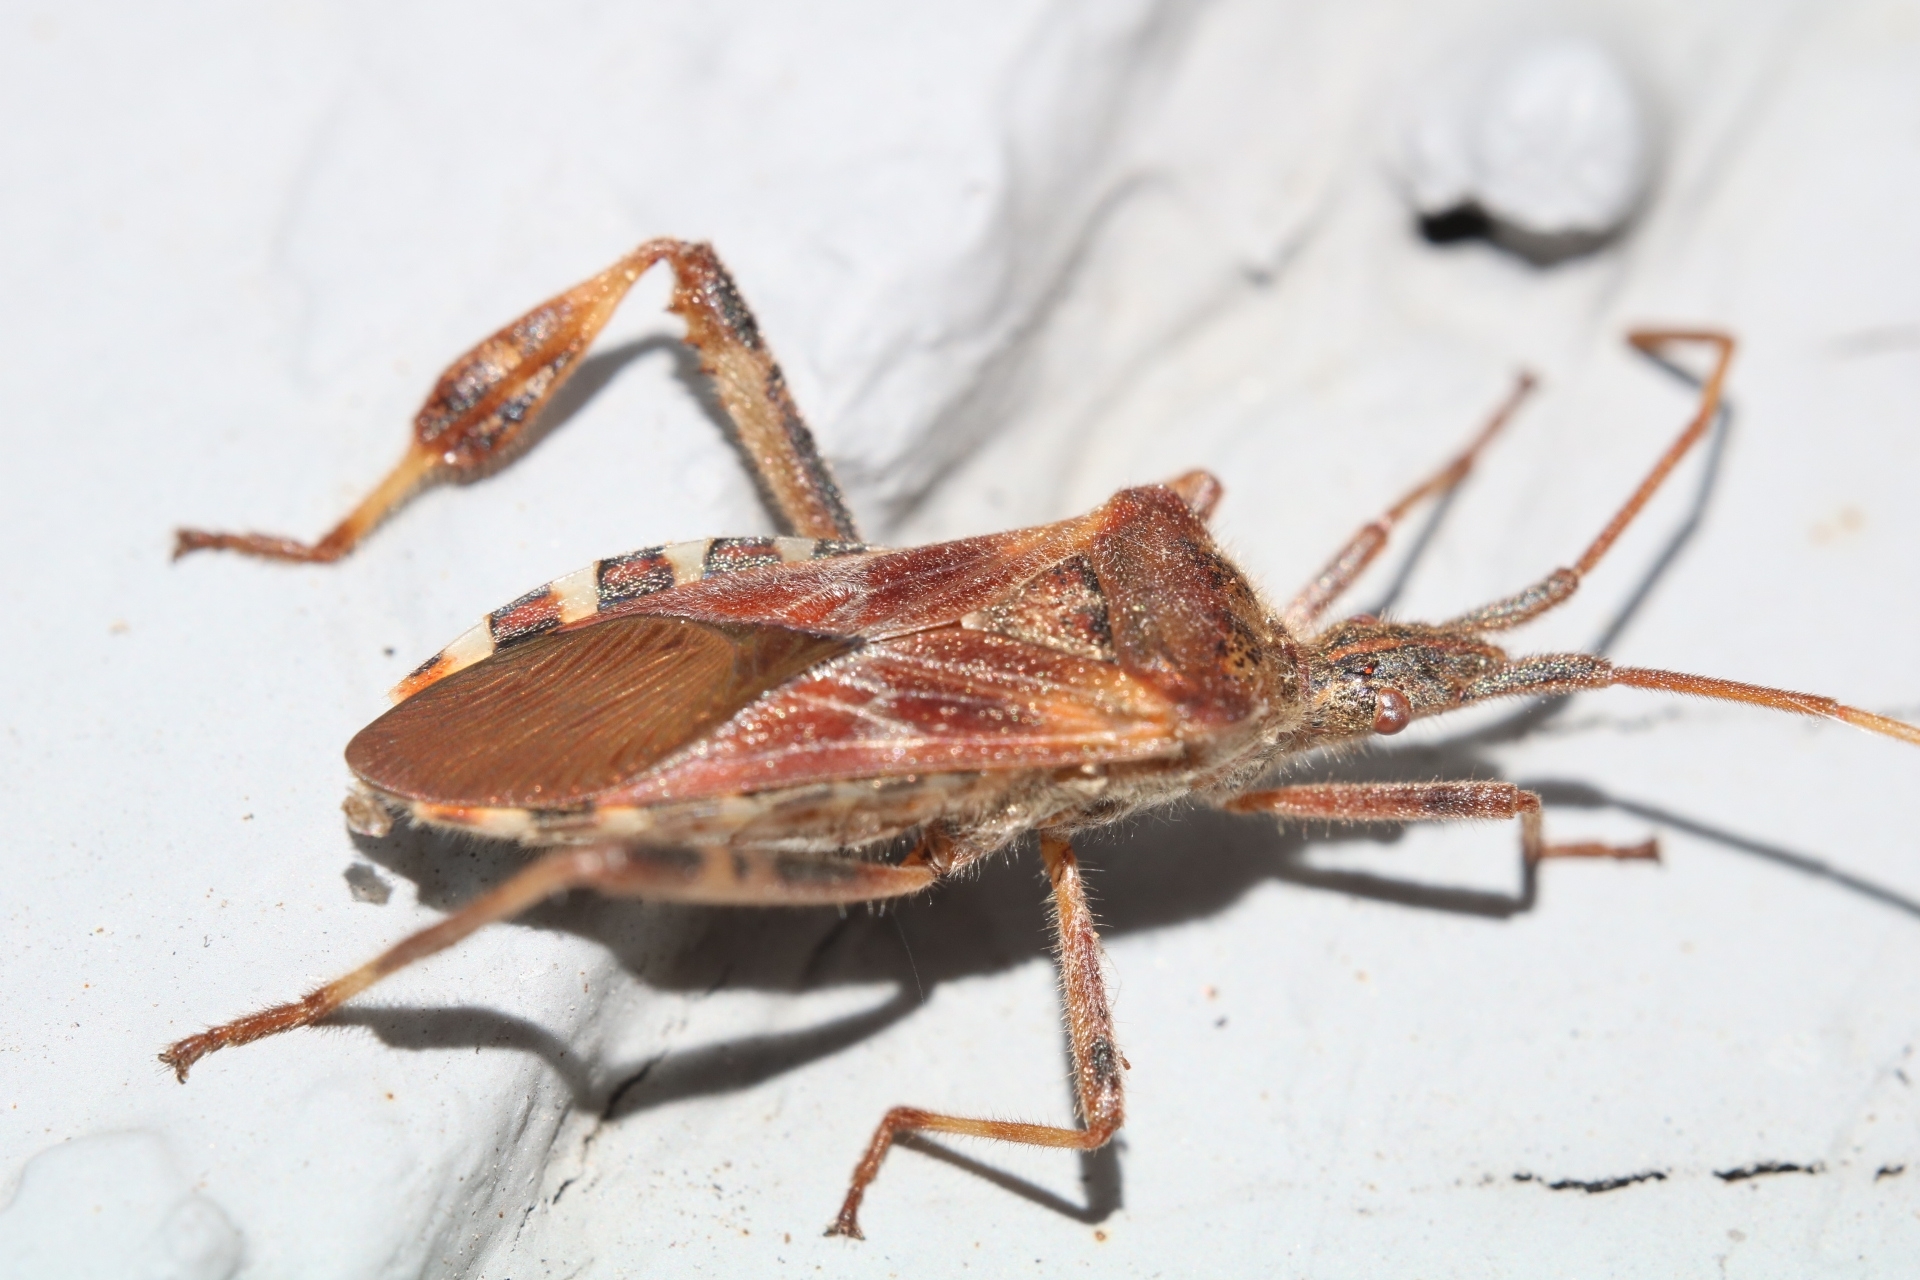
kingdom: Animalia
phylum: Arthropoda
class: Insecta
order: Hemiptera
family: Coreidae
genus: Leptoglossus
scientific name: Leptoglossus occidentalis
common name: Western conifer-seed bug
